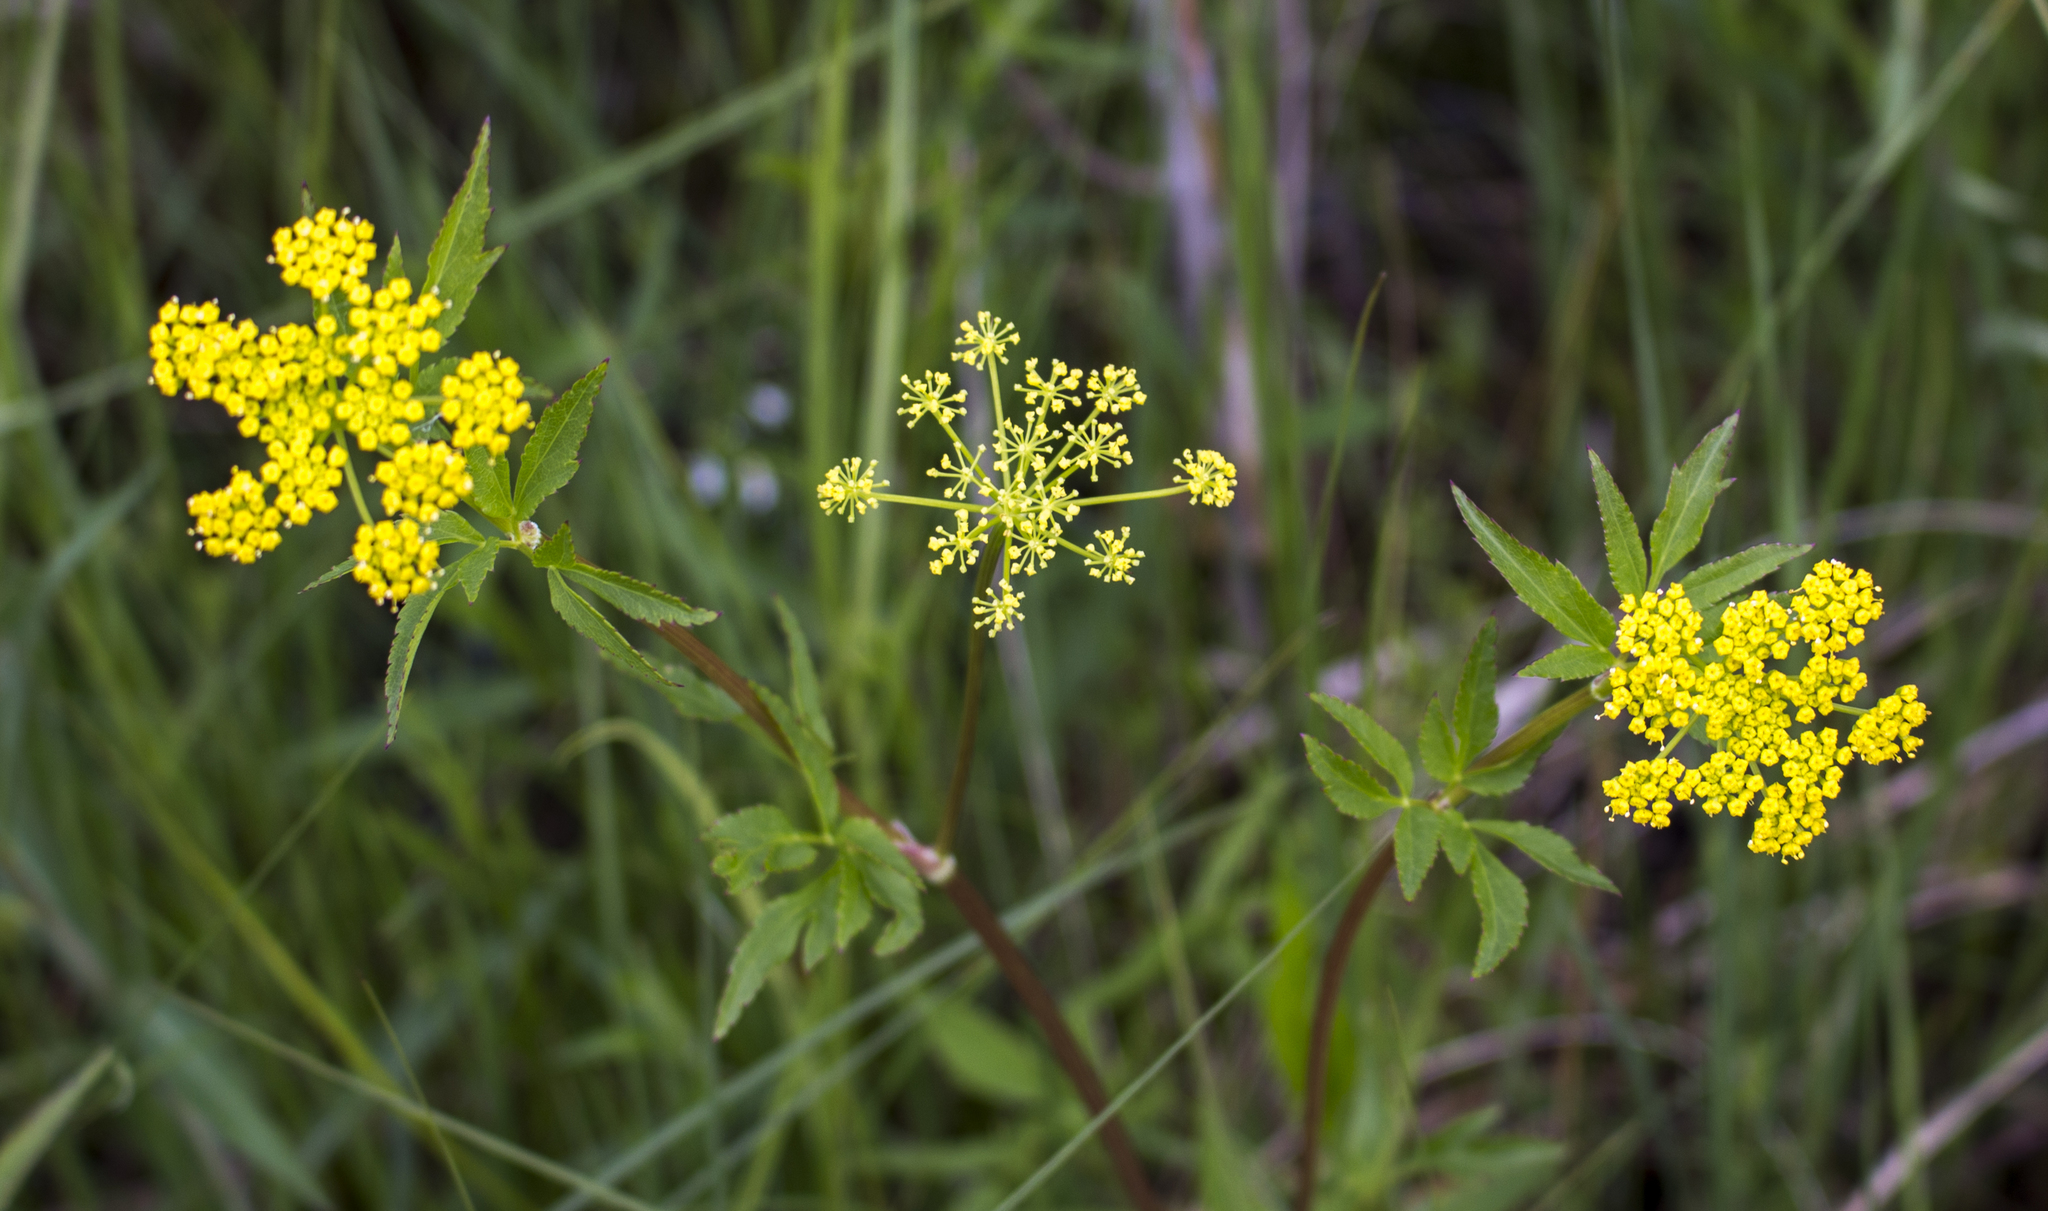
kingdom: Plantae
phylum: Tracheophyta
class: Magnoliopsida
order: Apiales
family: Apiaceae
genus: Zizia
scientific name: Zizia aurea
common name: Golden alexanders
